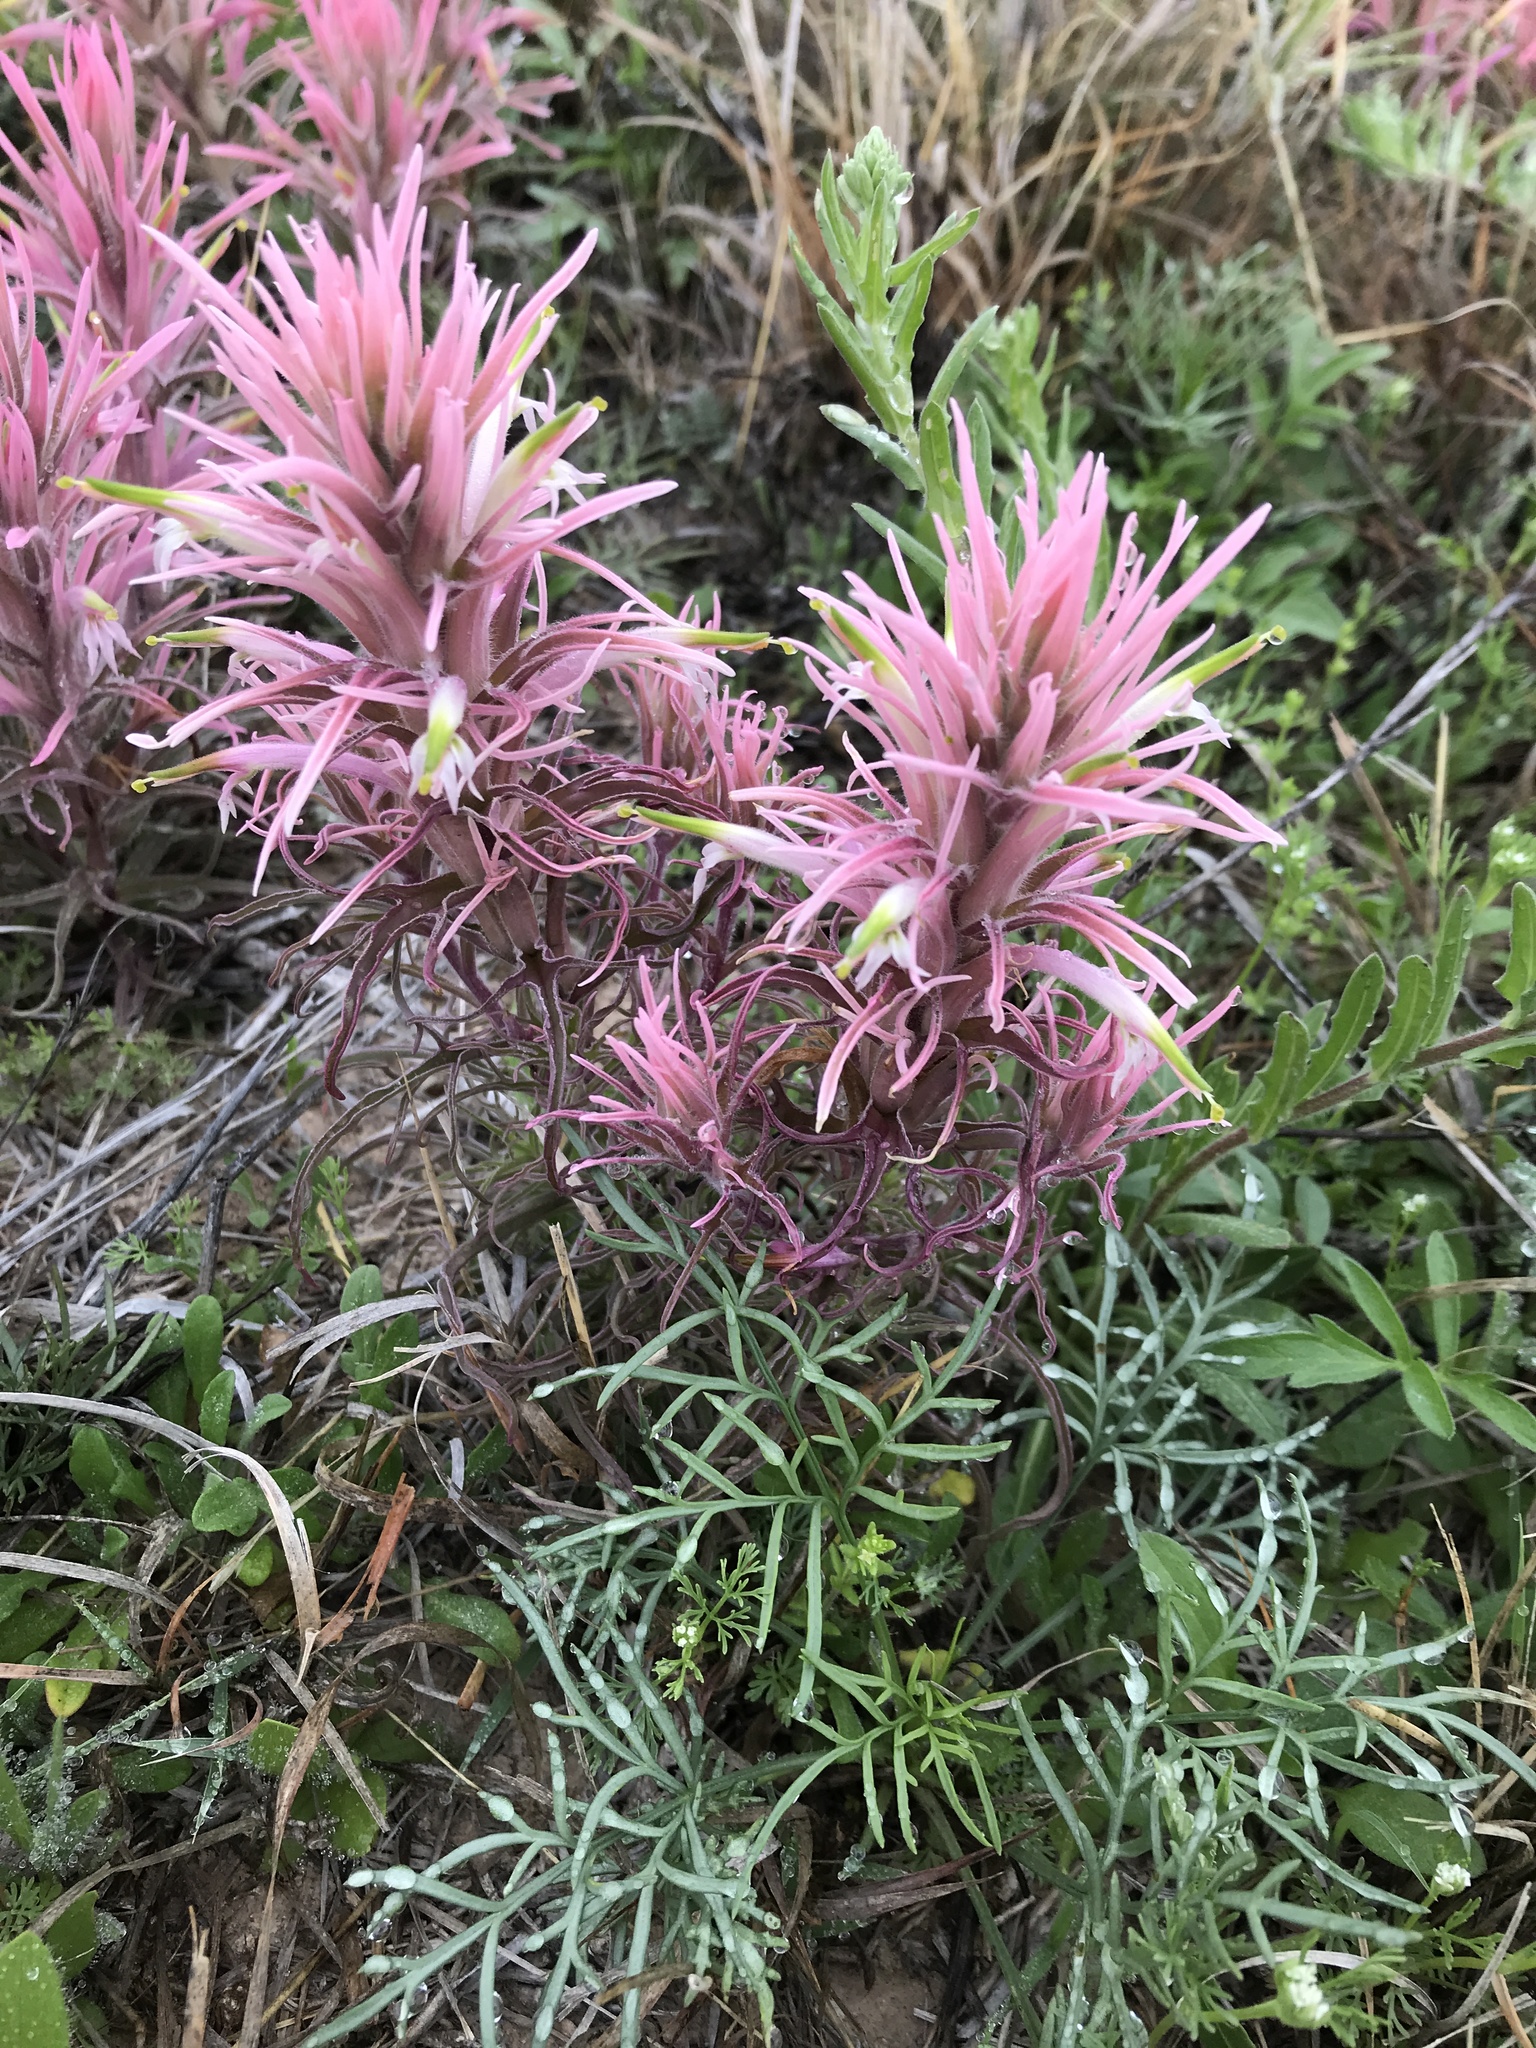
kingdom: Plantae
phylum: Tracheophyta
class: Magnoliopsida
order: Lamiales
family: Orobanchaceae
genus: Castilleja
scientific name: Castilleja sessiliflora
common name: Downy paintbrush
